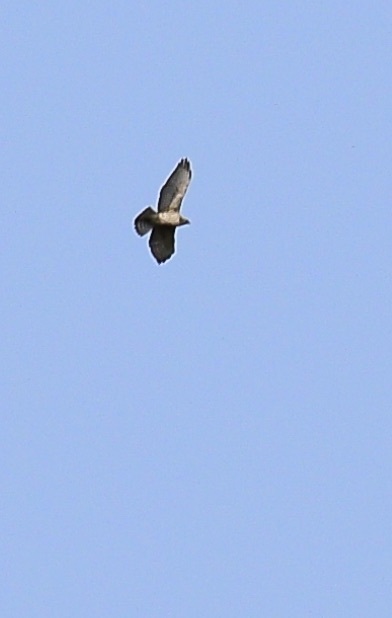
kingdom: Animalia
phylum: Chordata
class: Aves
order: Accipitriformes
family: Accipitridae
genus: Buteo
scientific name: Buteo platypterus
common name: Broad-winged hawk
